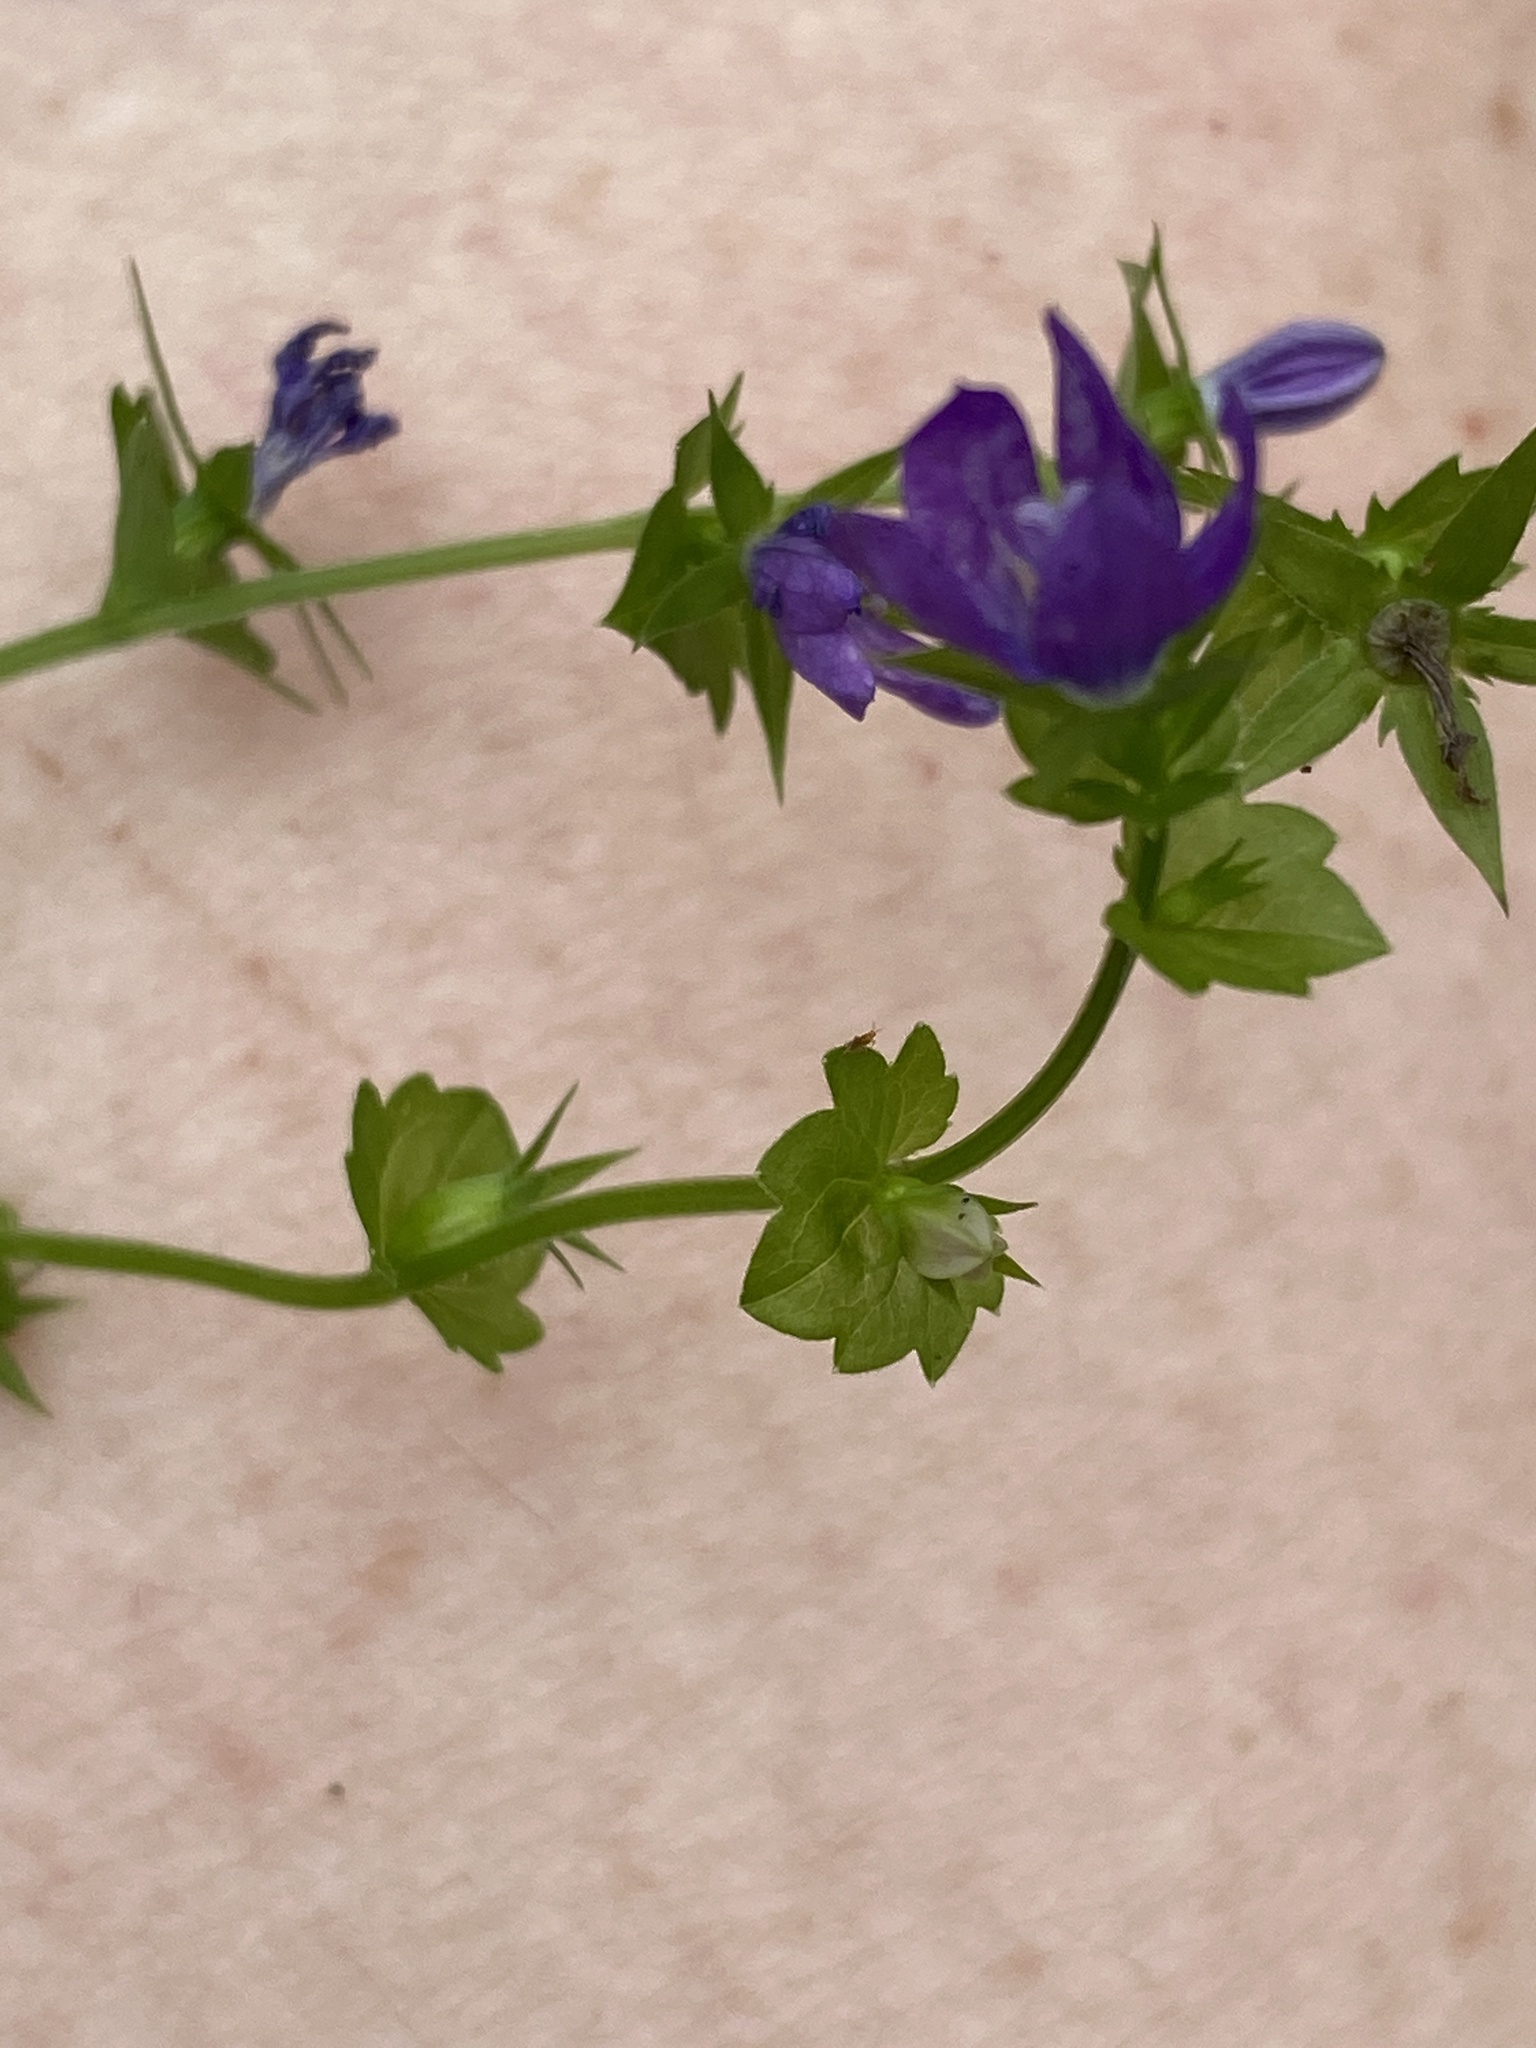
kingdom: Plantae
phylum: Tracheophyta
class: Magnoliopsida
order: Asterales
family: Campanulaceae
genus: Triodanis
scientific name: Triodanis perfoliata
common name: Clasping venus' looking-glass
